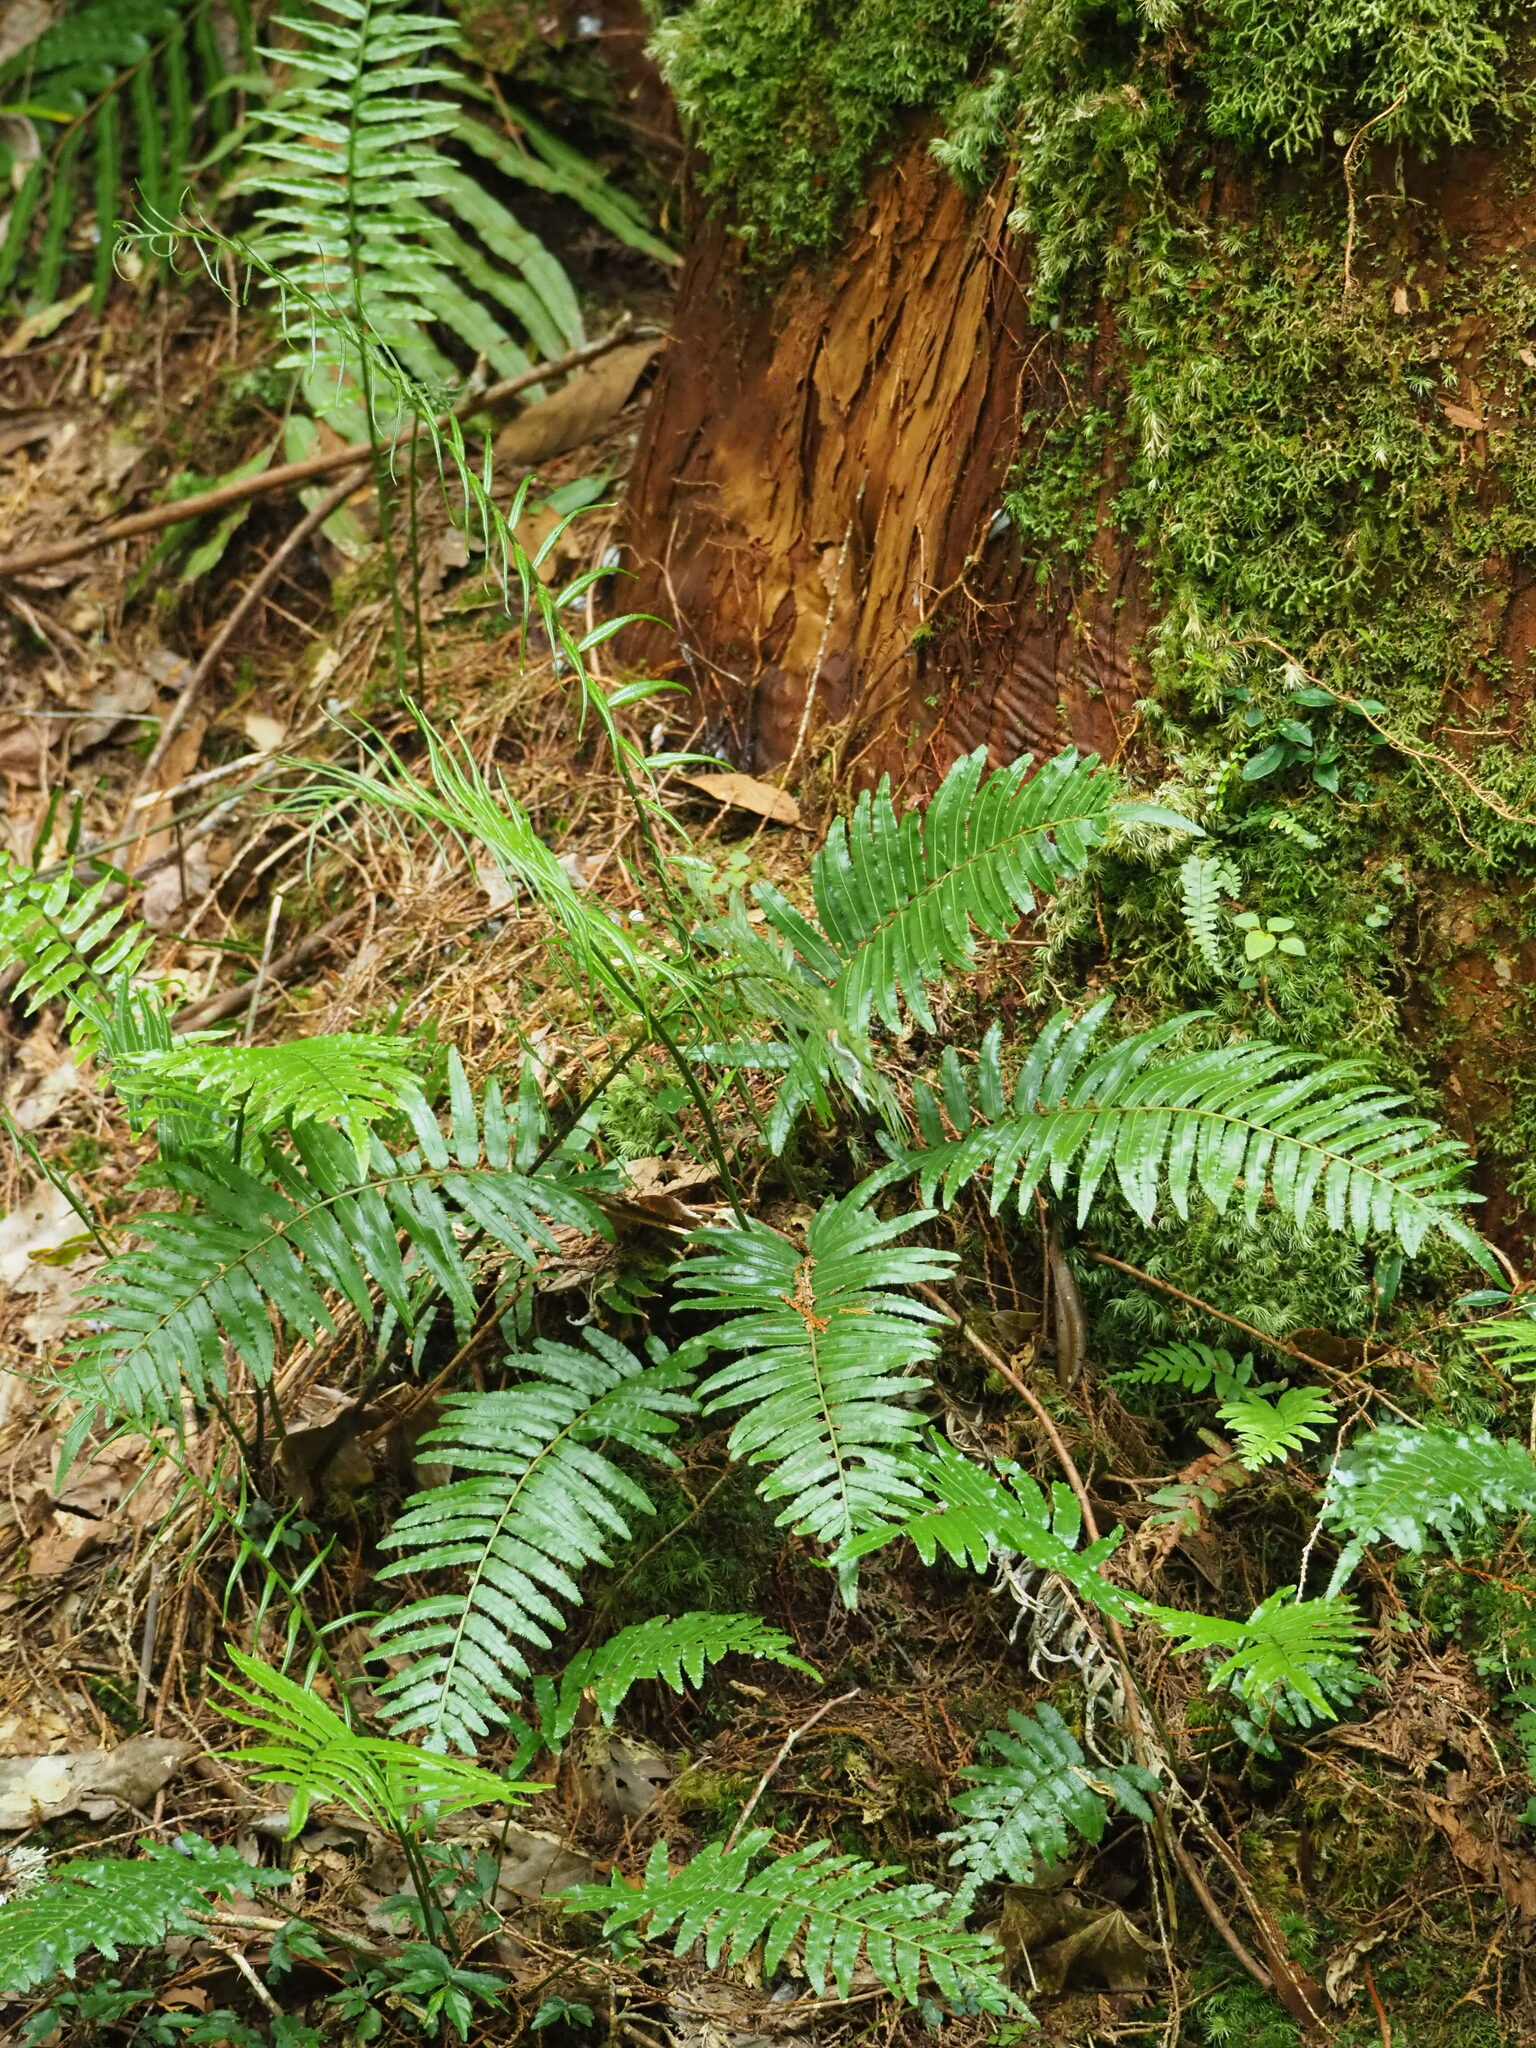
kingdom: Plantae
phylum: Tracheophyta
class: Polypodiopsida
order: Cyatheales
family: Plagiogyriaceae
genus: Plagiogyria
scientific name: Plagiogyria glauca
